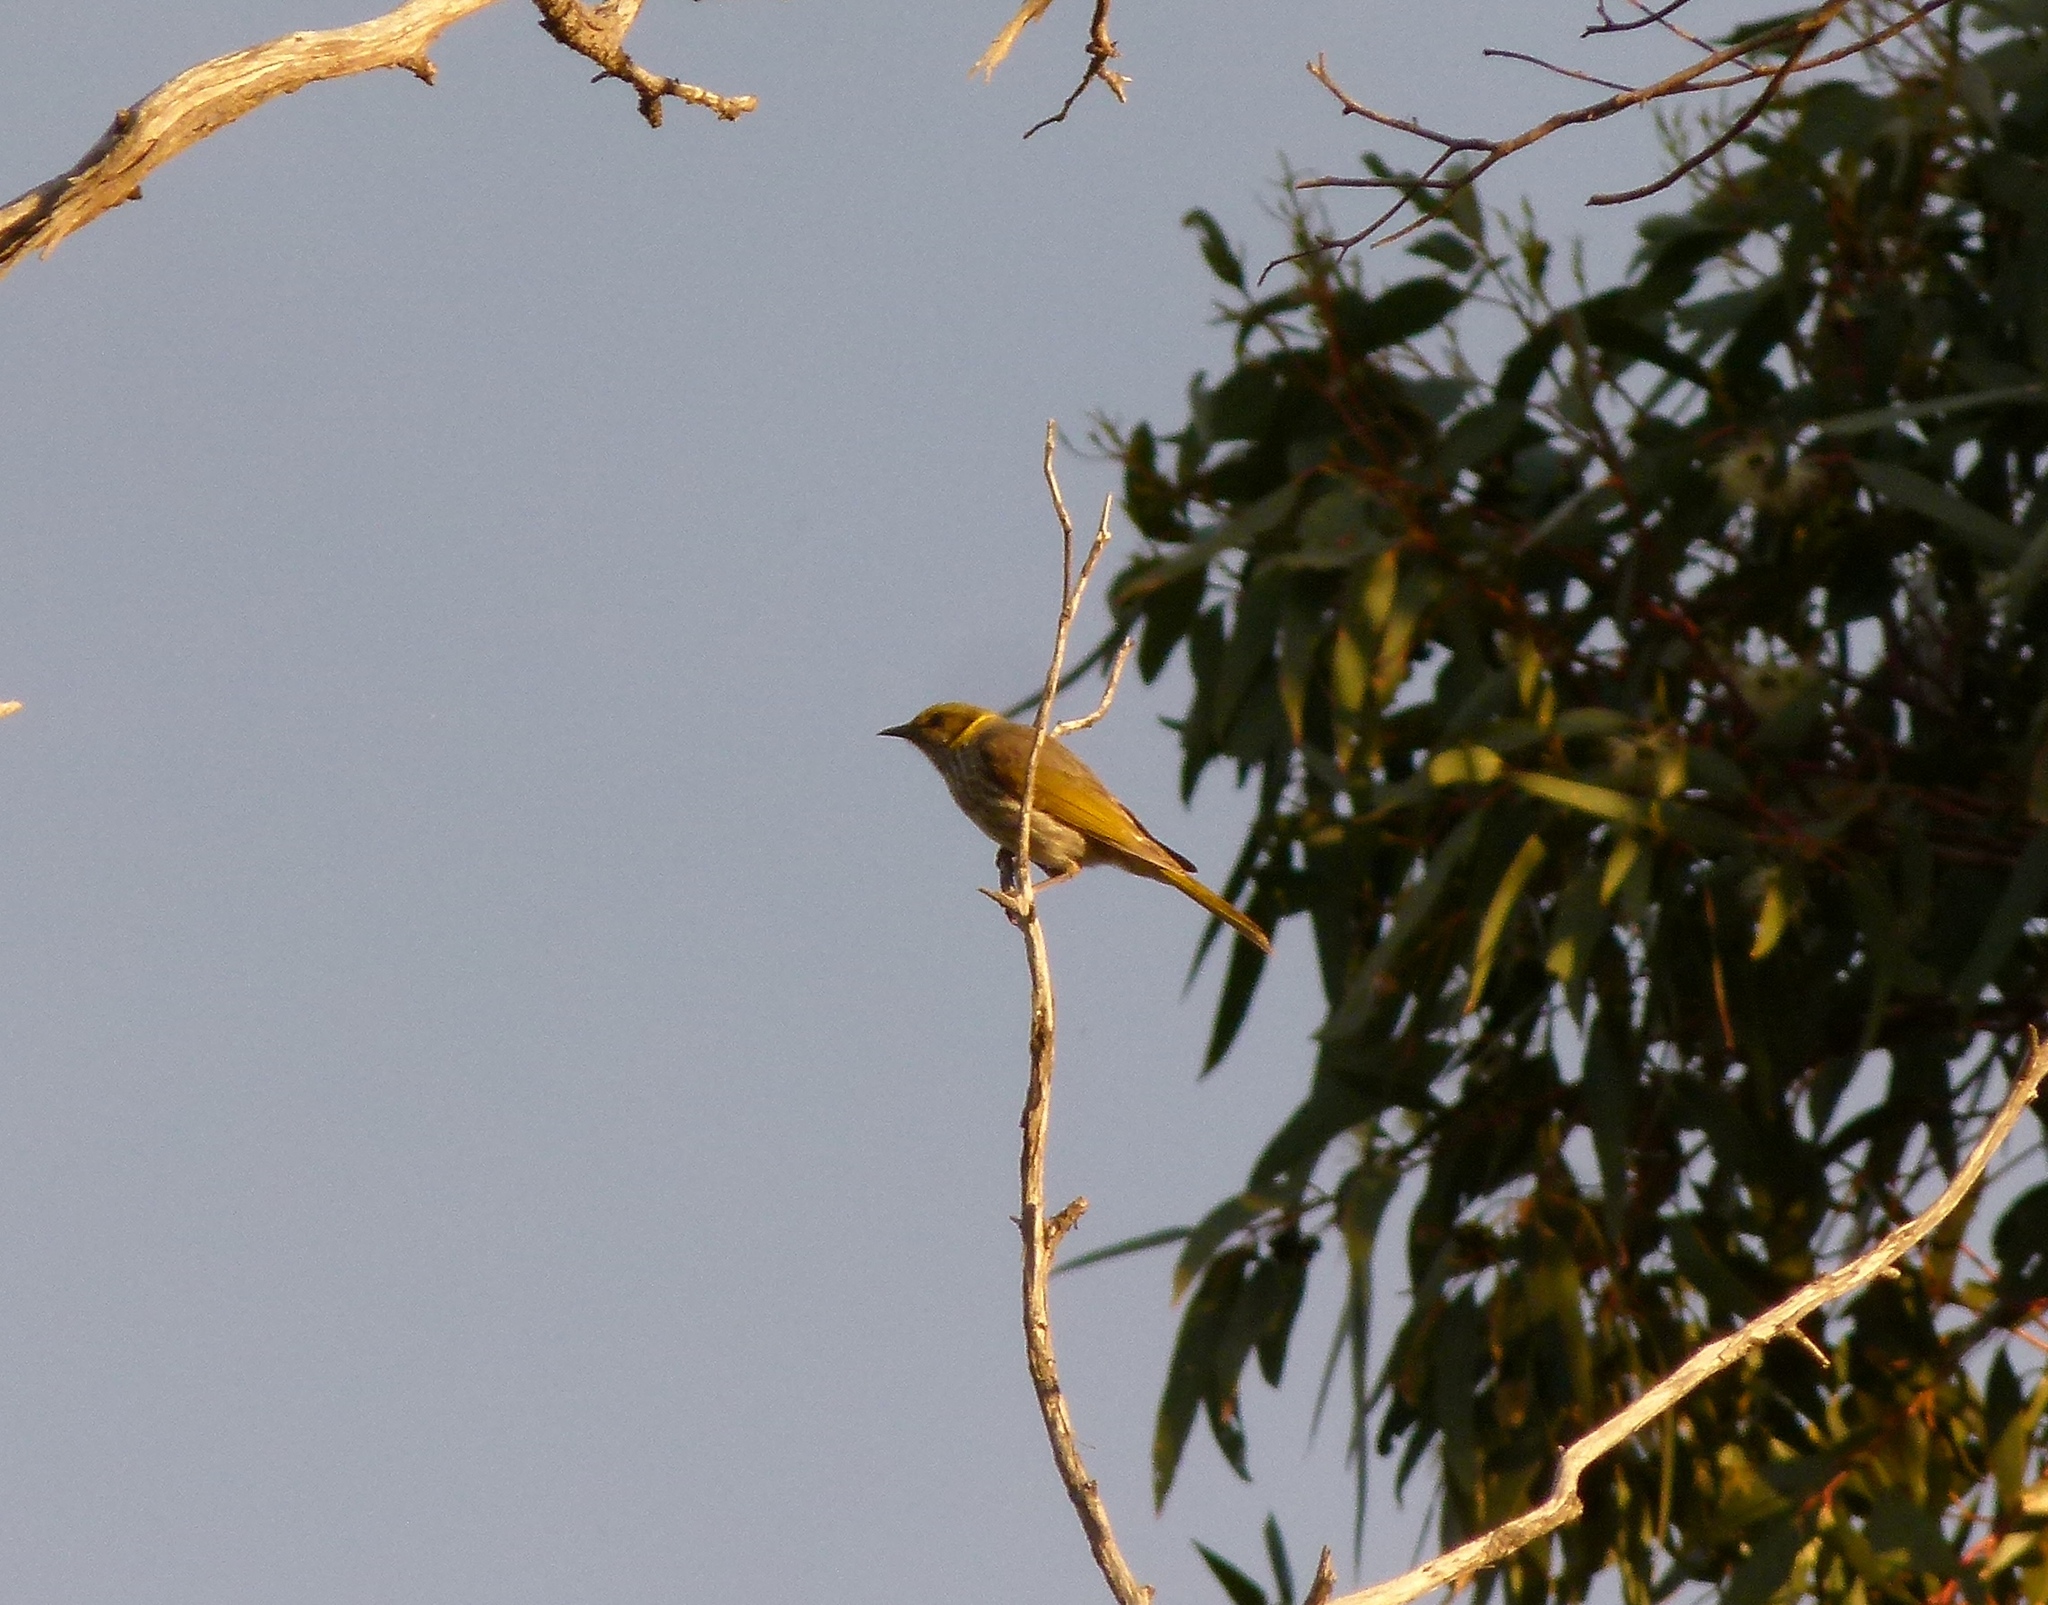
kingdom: Animalia
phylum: Chordata
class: Aves
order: Passeriformes
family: Meliphagidae
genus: Ptilotula
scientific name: Ptilotula ornata
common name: Yellow-plumed honeyeater
